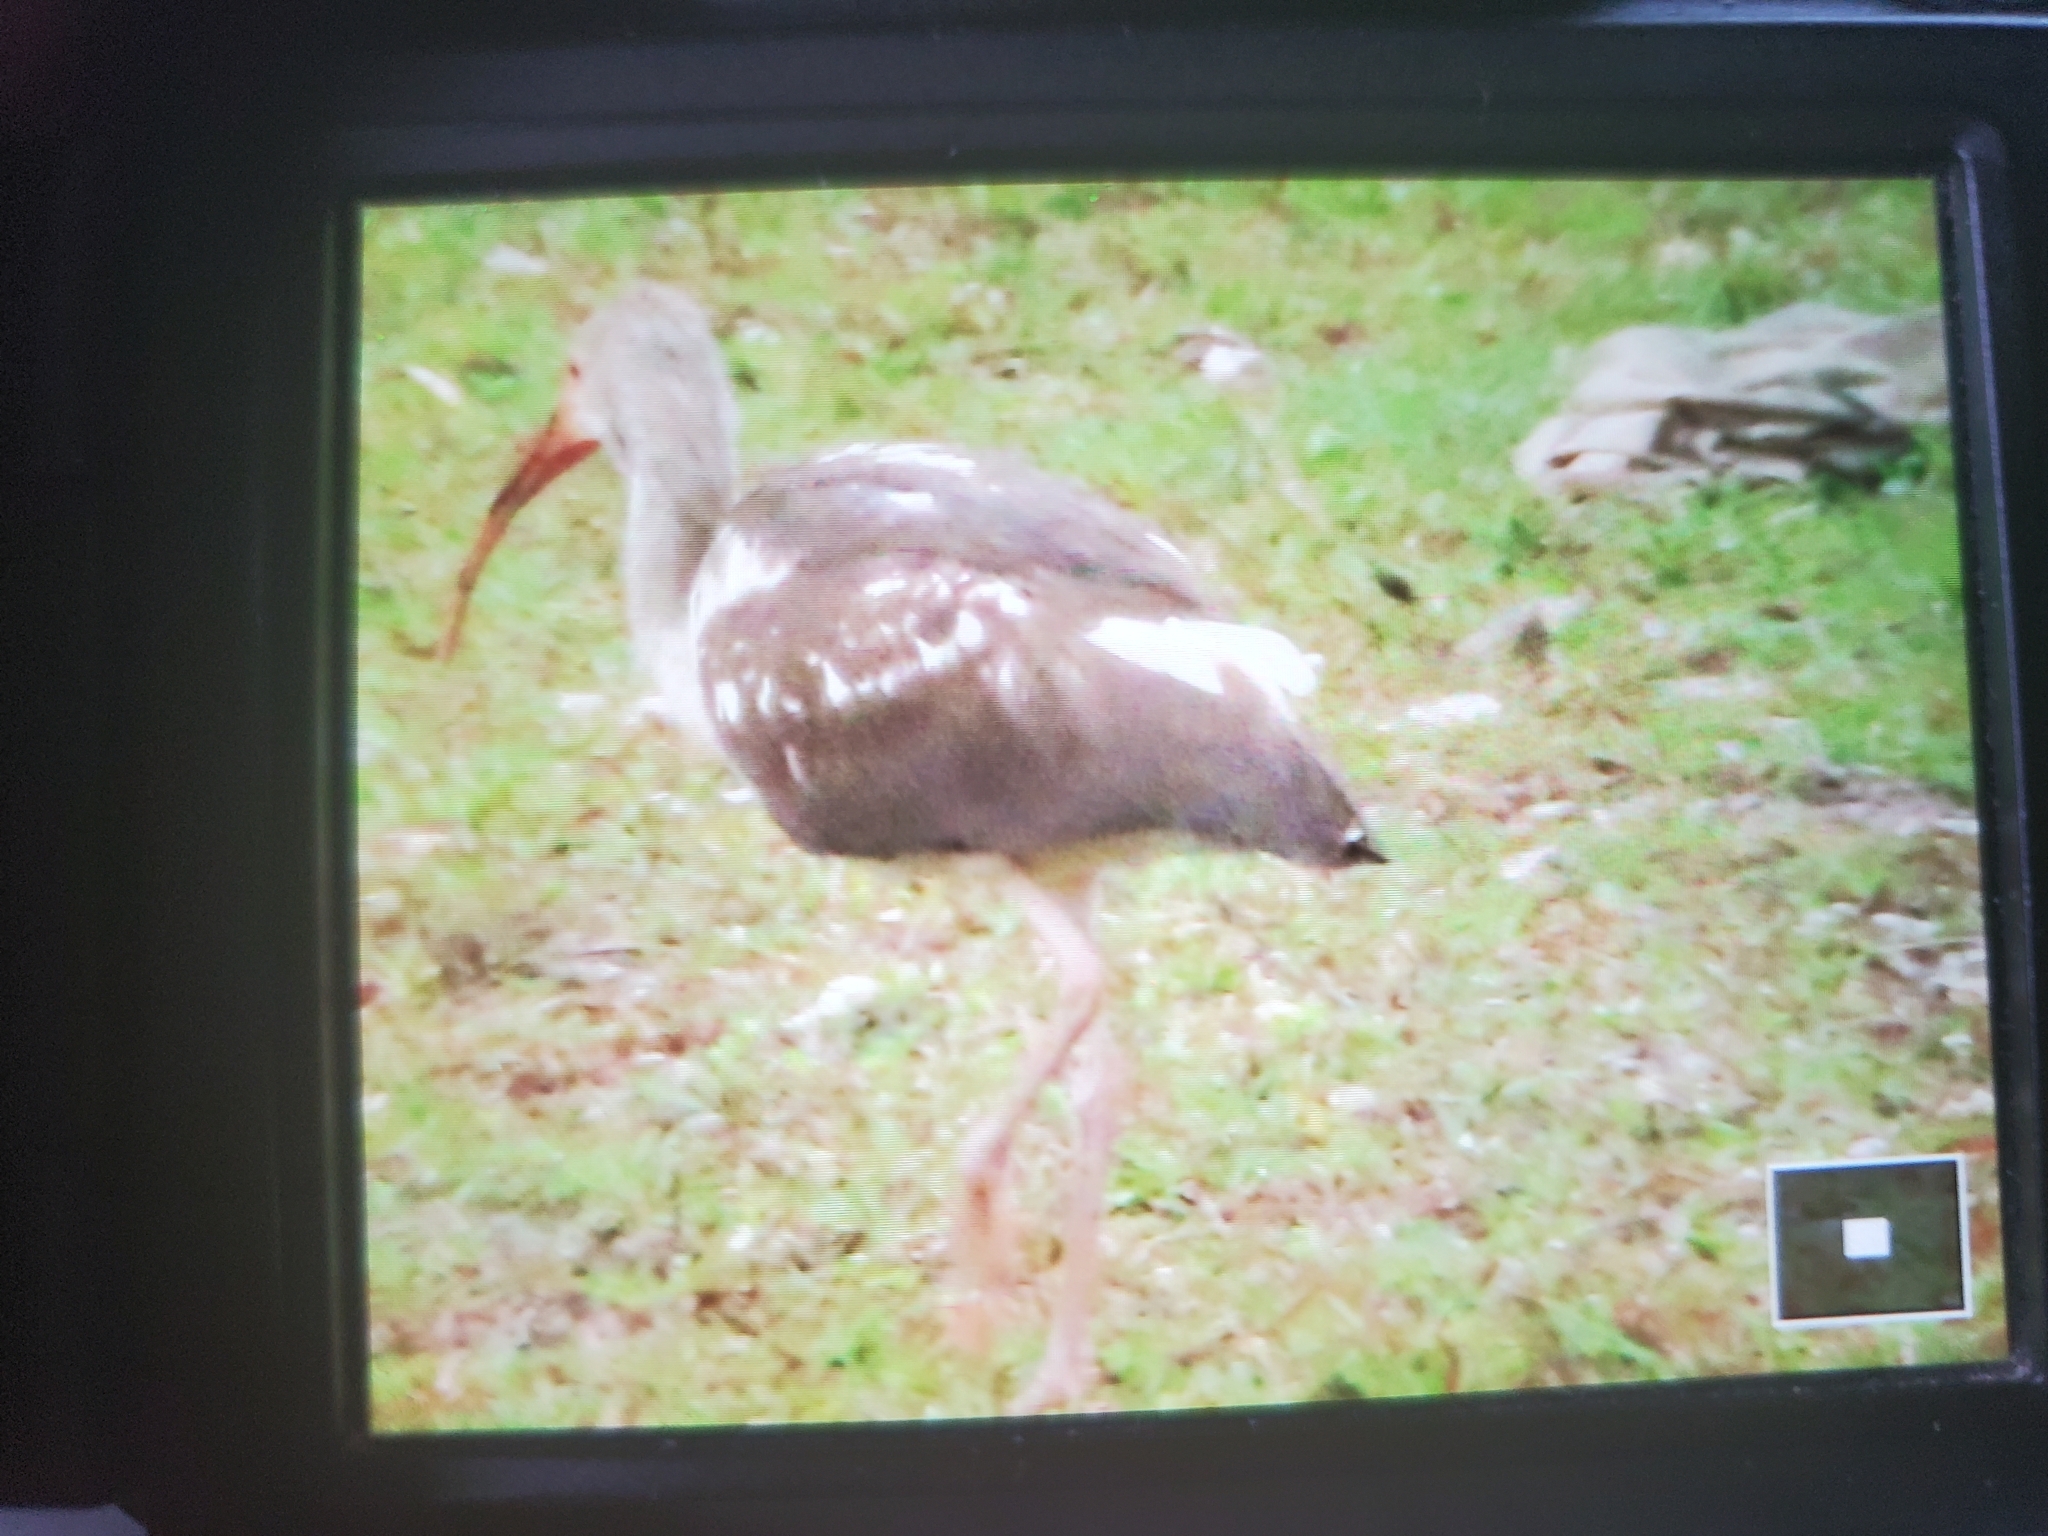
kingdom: Animalia
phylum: Chordata
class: Aves
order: Pelecaniformes
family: Threskiornithidae
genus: Eudocimus
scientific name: Eudocimus albus
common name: White ibis
